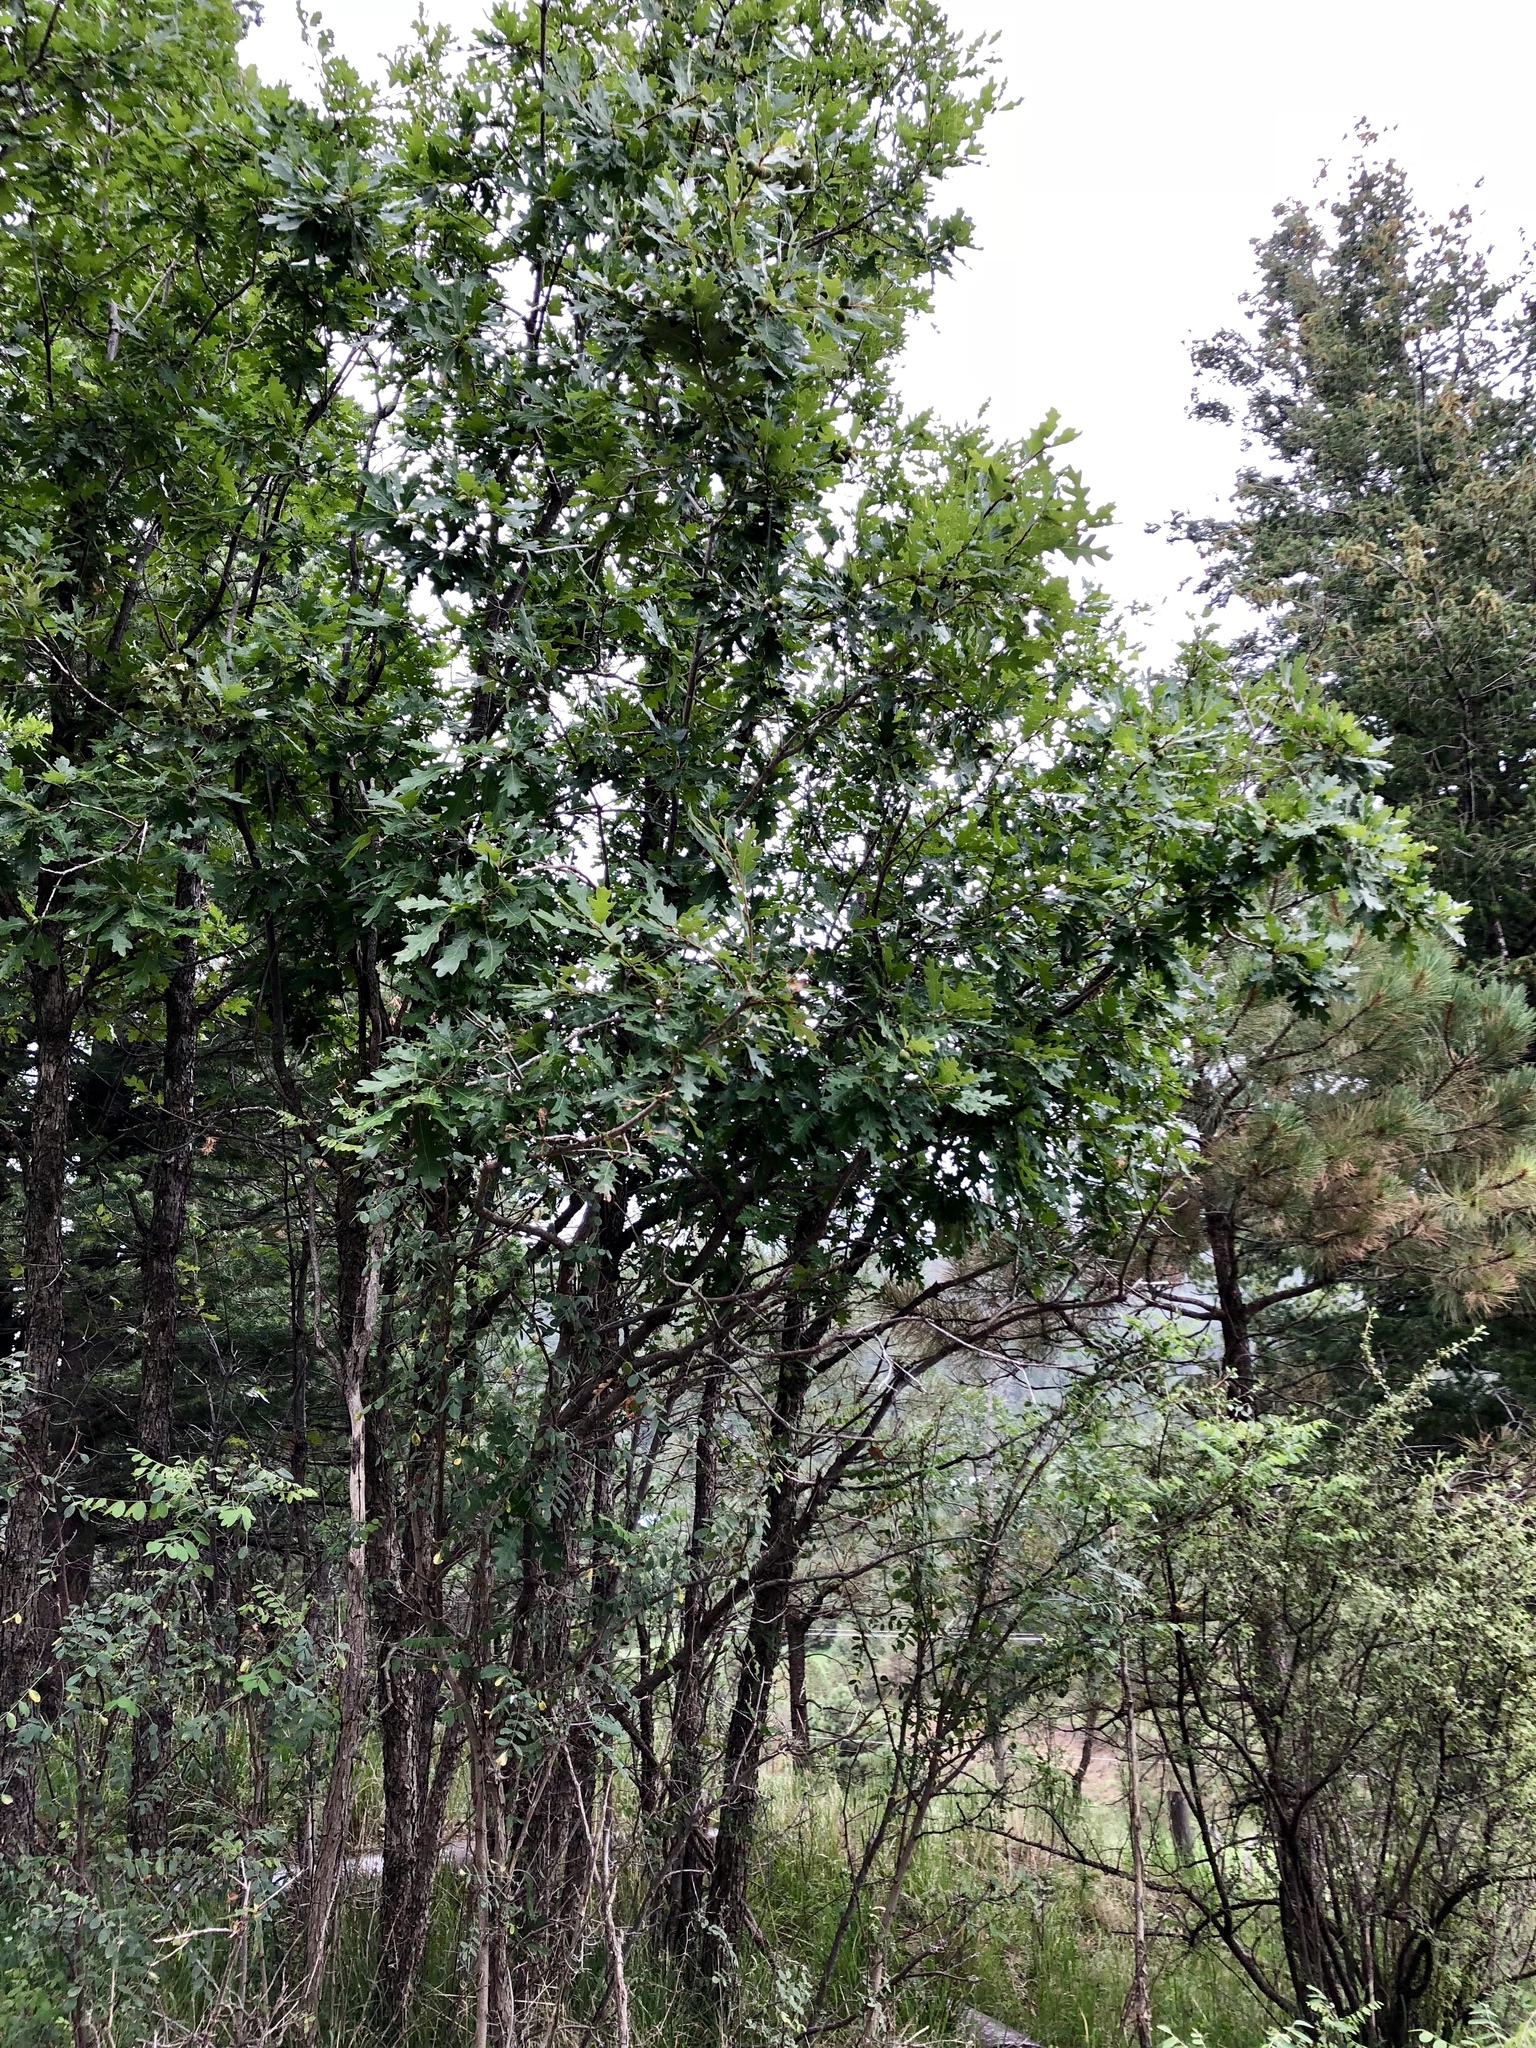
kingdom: Plantae
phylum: Tracheophyta
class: Magnoliopsida
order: Fagales
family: Fagaceae
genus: Quercus
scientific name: Quercus gambelii
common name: Gambel oak
